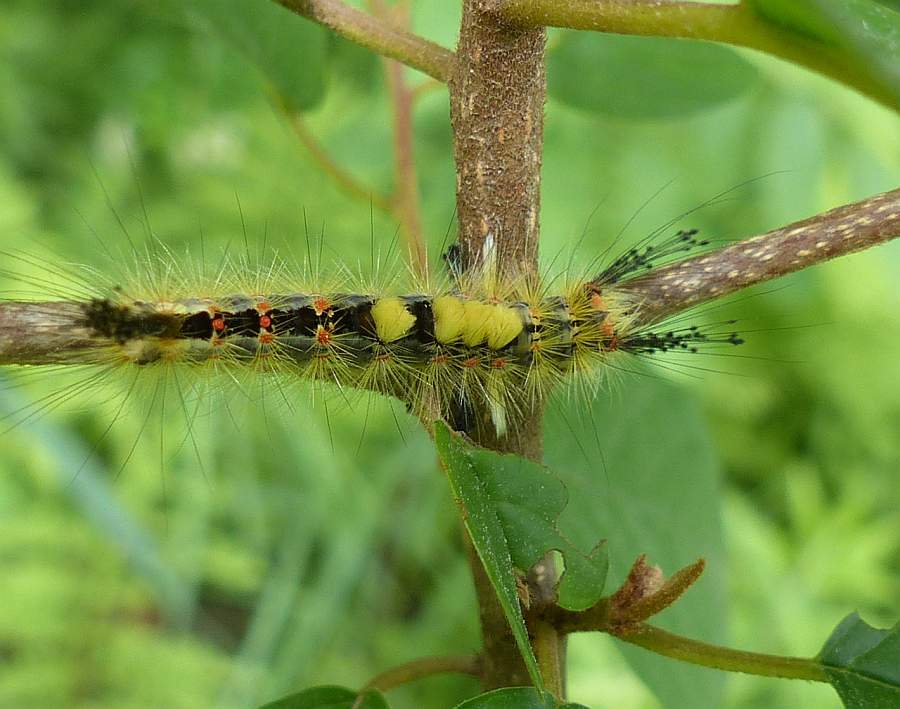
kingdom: Animalia
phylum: Arthropoda
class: Insecta
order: Lepidoptera
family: Erebidae
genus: Orgyia
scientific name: Orgyia antiqua
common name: Vapourer
